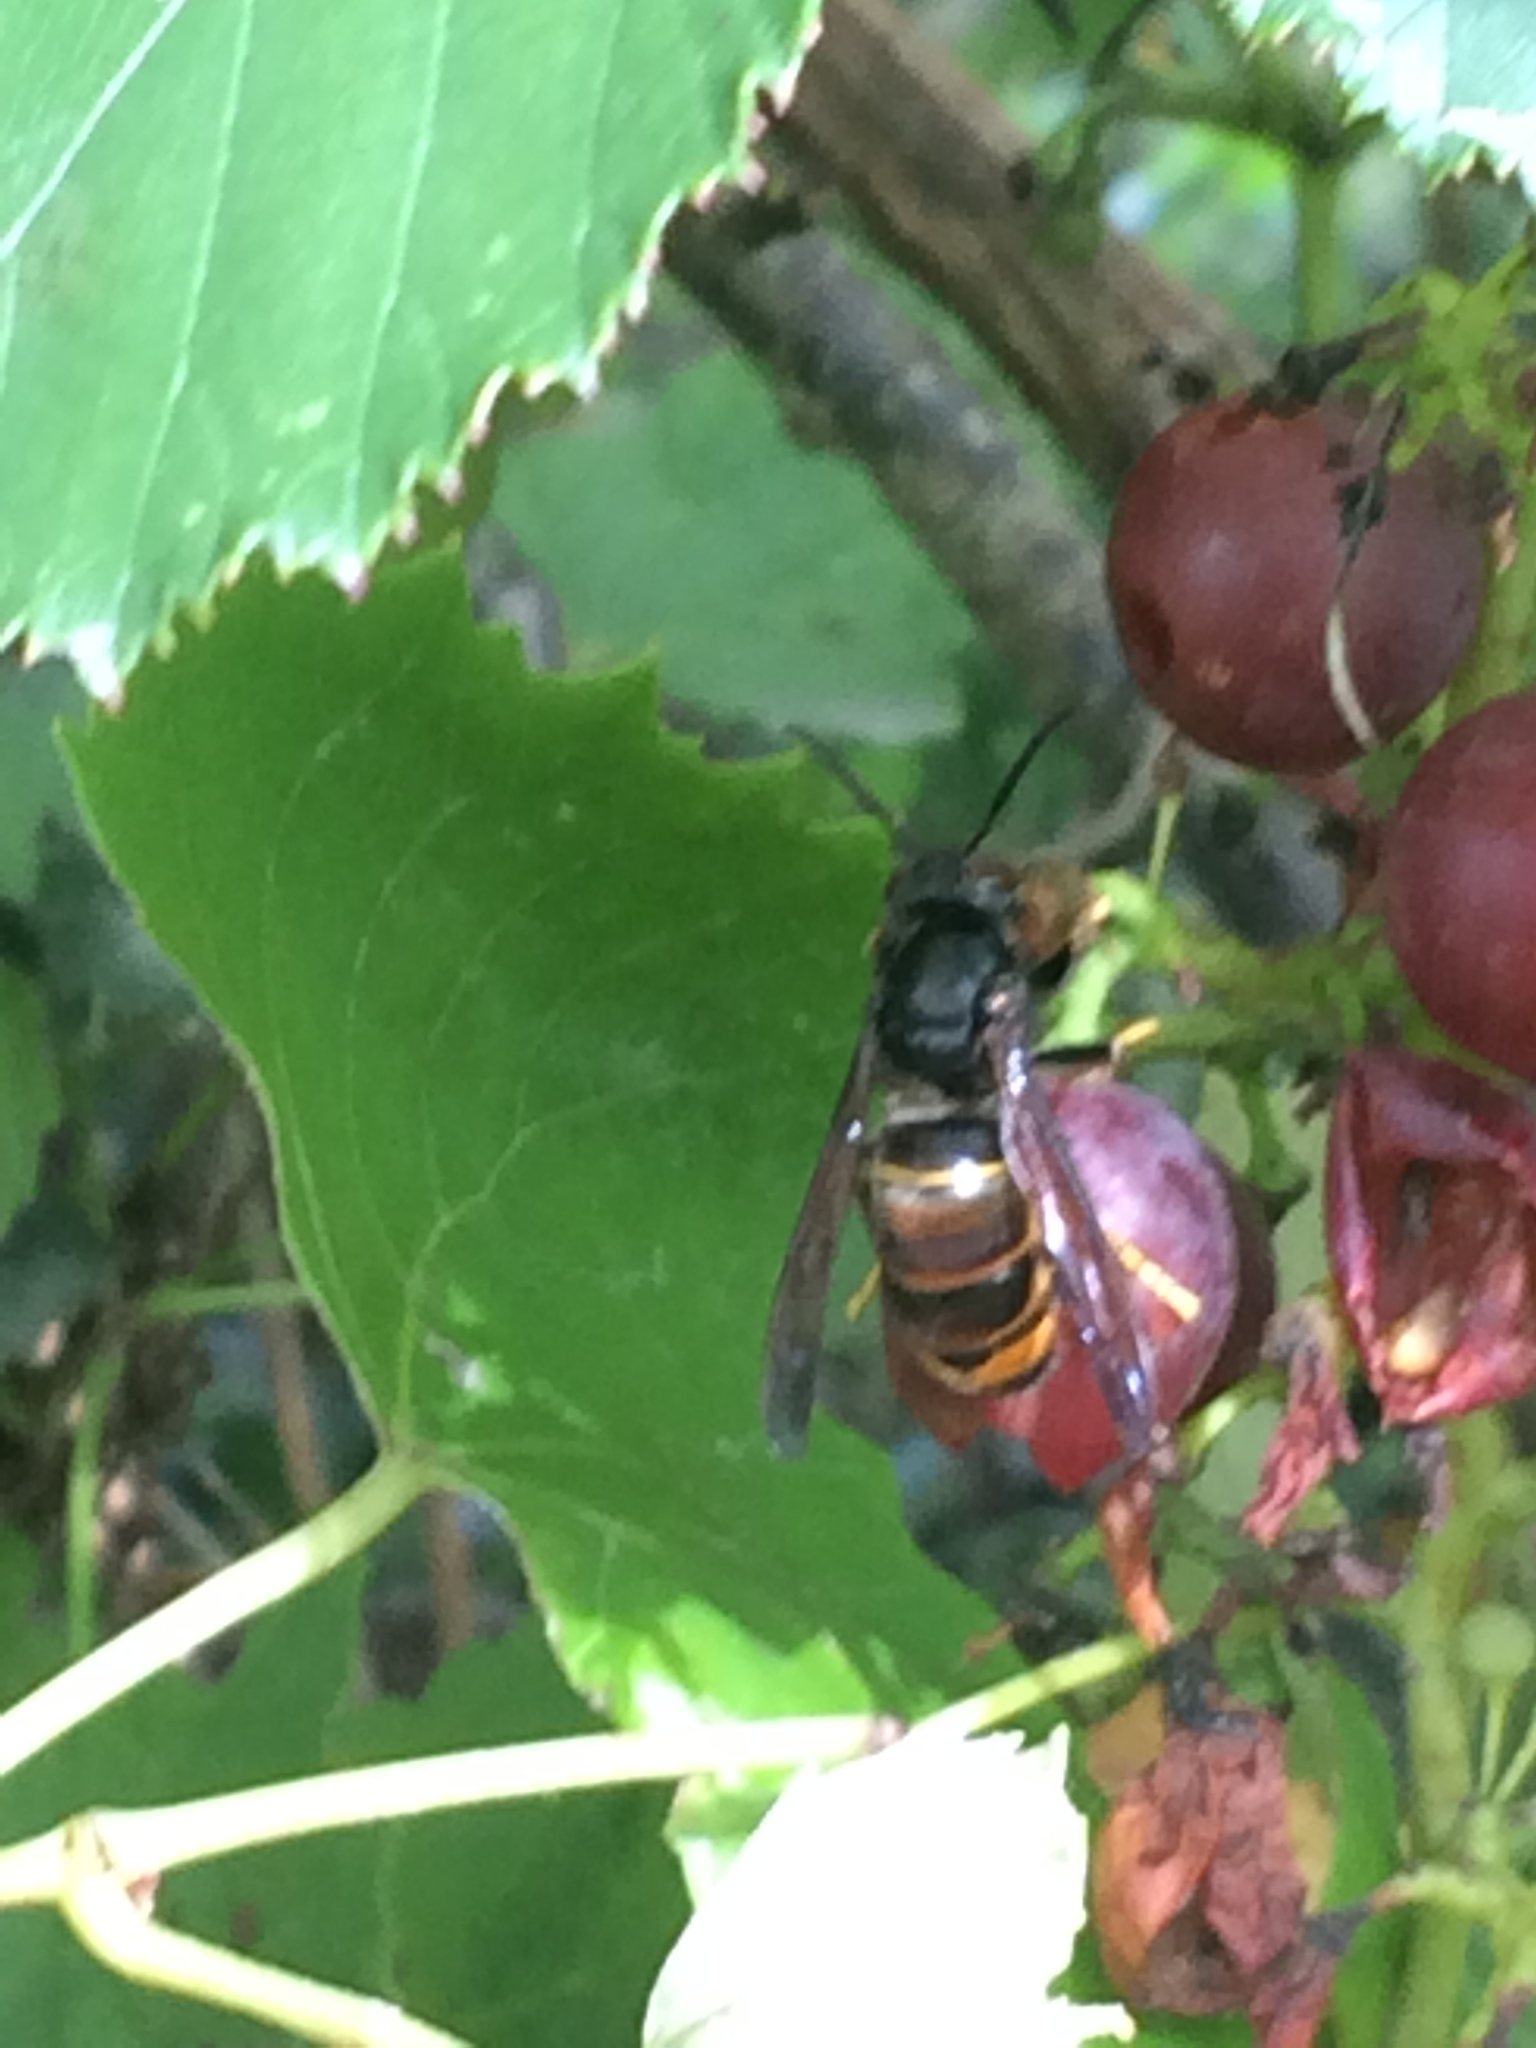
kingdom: Animalia
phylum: Arthropoda
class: Insecta
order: Hymenoptera
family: Vespidae
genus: Vespa
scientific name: Vespa velutina
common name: Asian hornet
